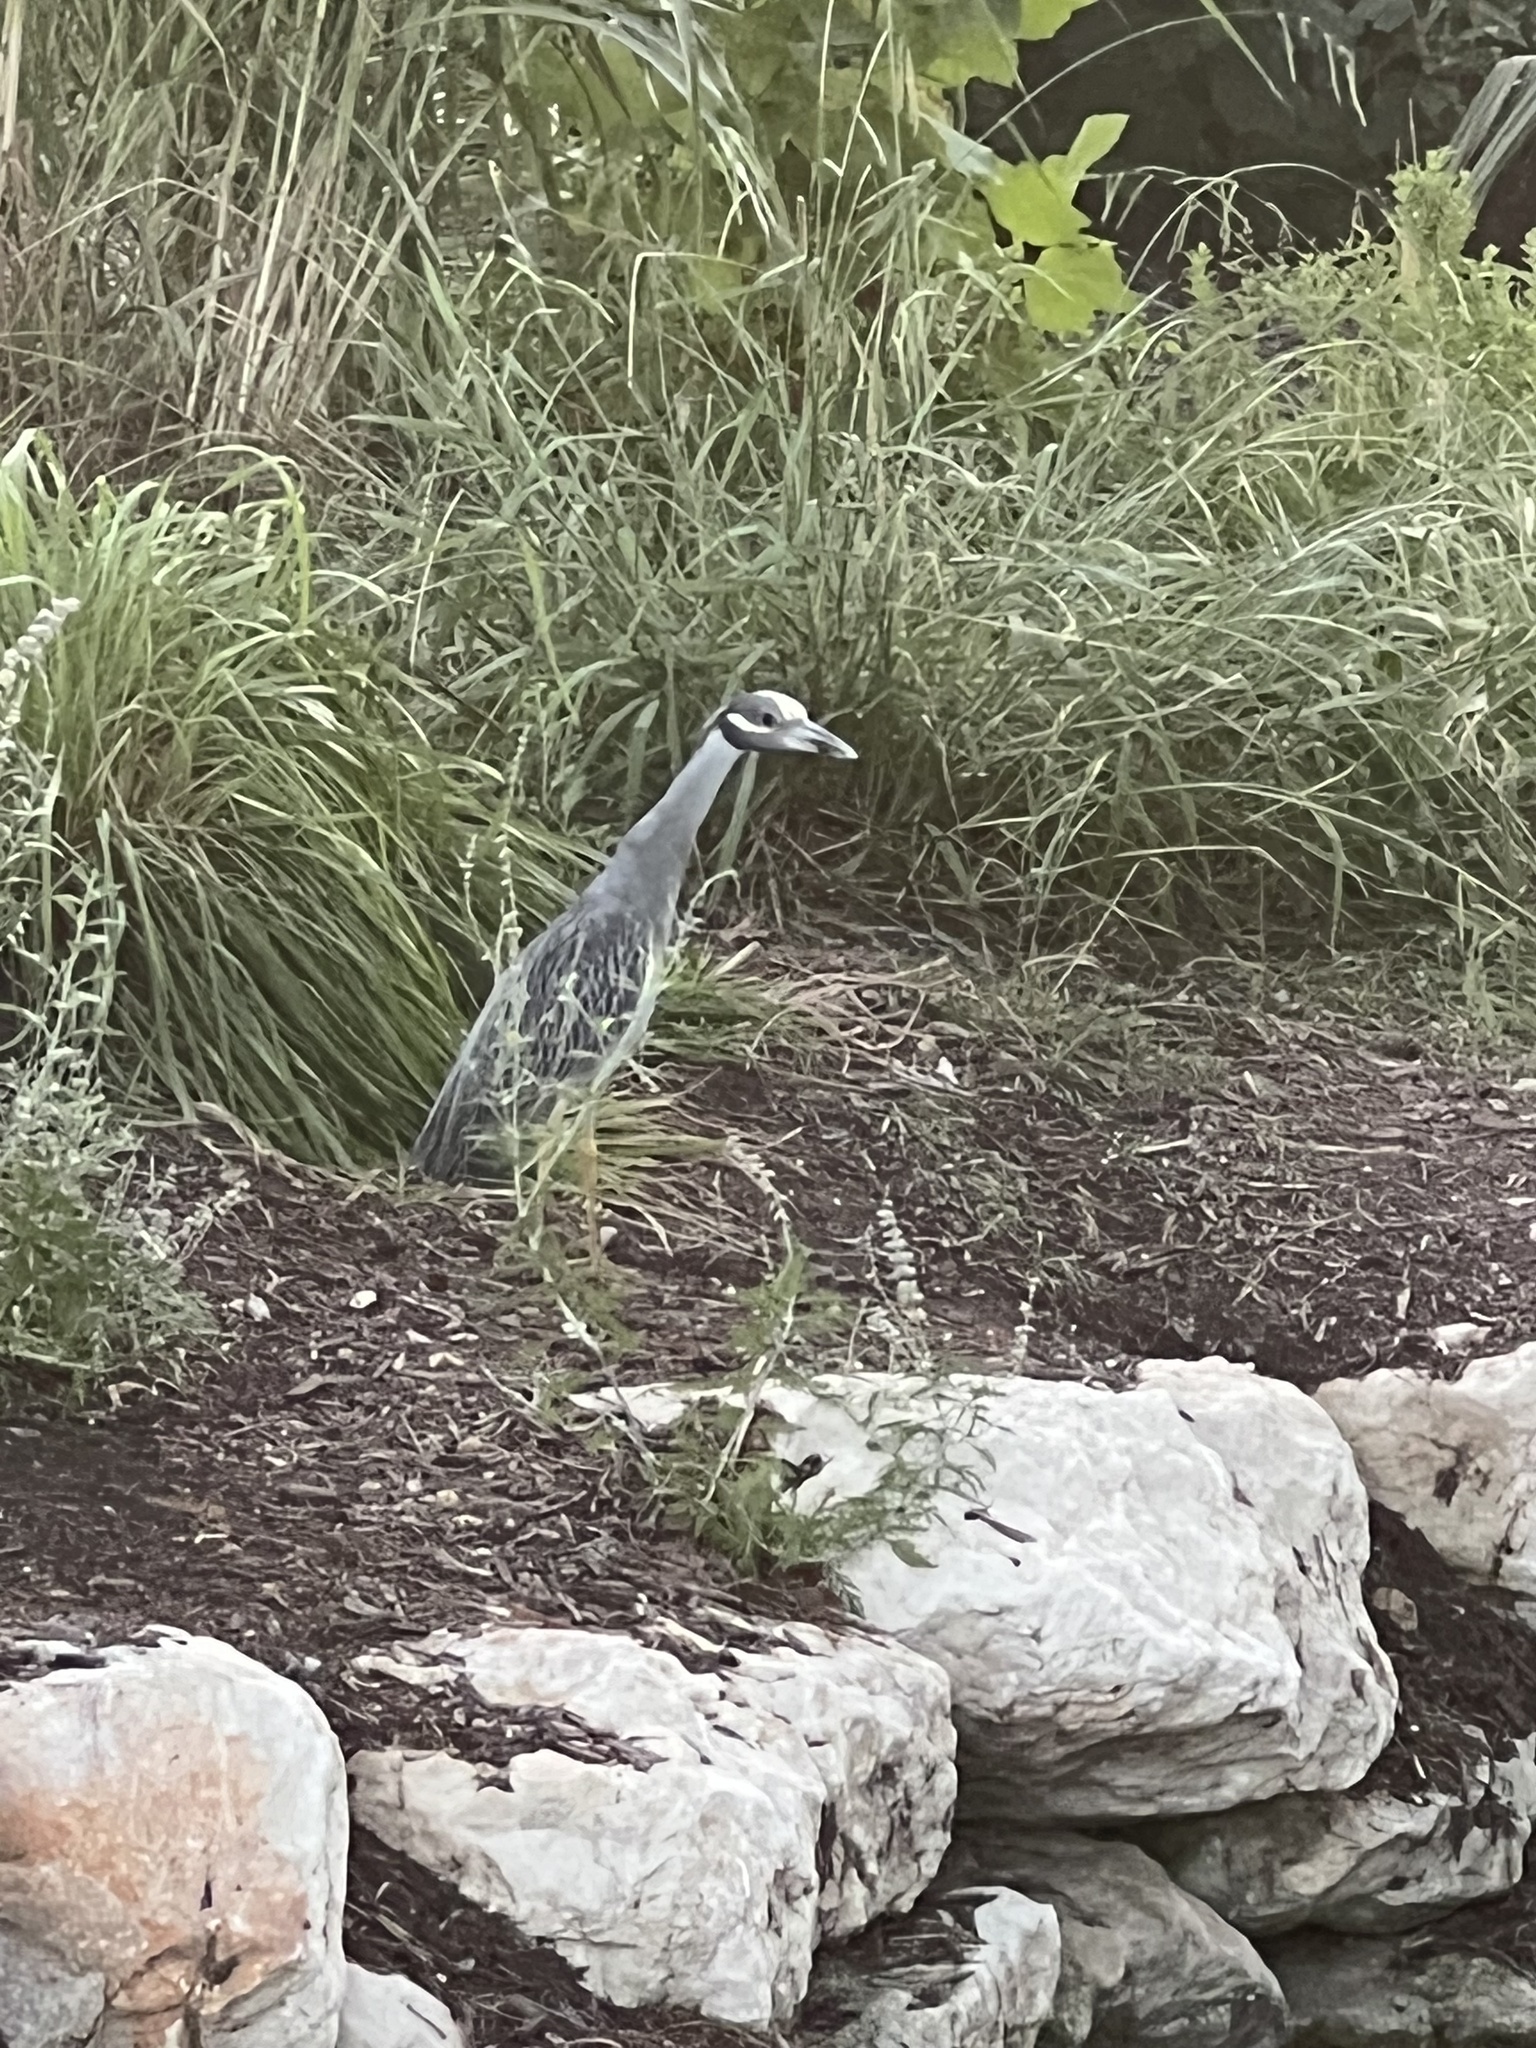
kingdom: Animalia
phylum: Chordata
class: Aves
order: Pelecaniformes
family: Ardeidae
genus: Nyctanassa
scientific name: Nyctanassa violacea
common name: Yellow-crowned night heron
